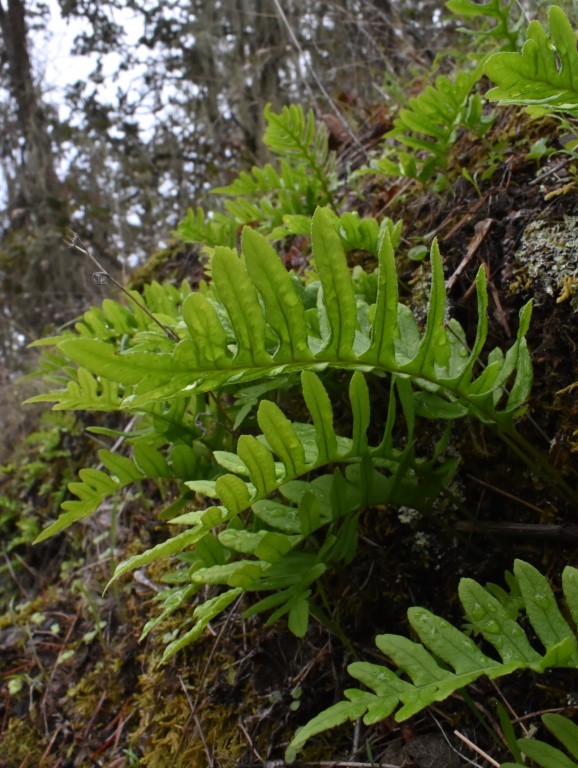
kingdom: Plantae
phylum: Tracheophyta
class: Polypodiopsida
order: Polypodiales
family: Polypodiaceae
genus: Polypodium
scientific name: Polypodium glycyrrhiza
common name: Licorice fern
